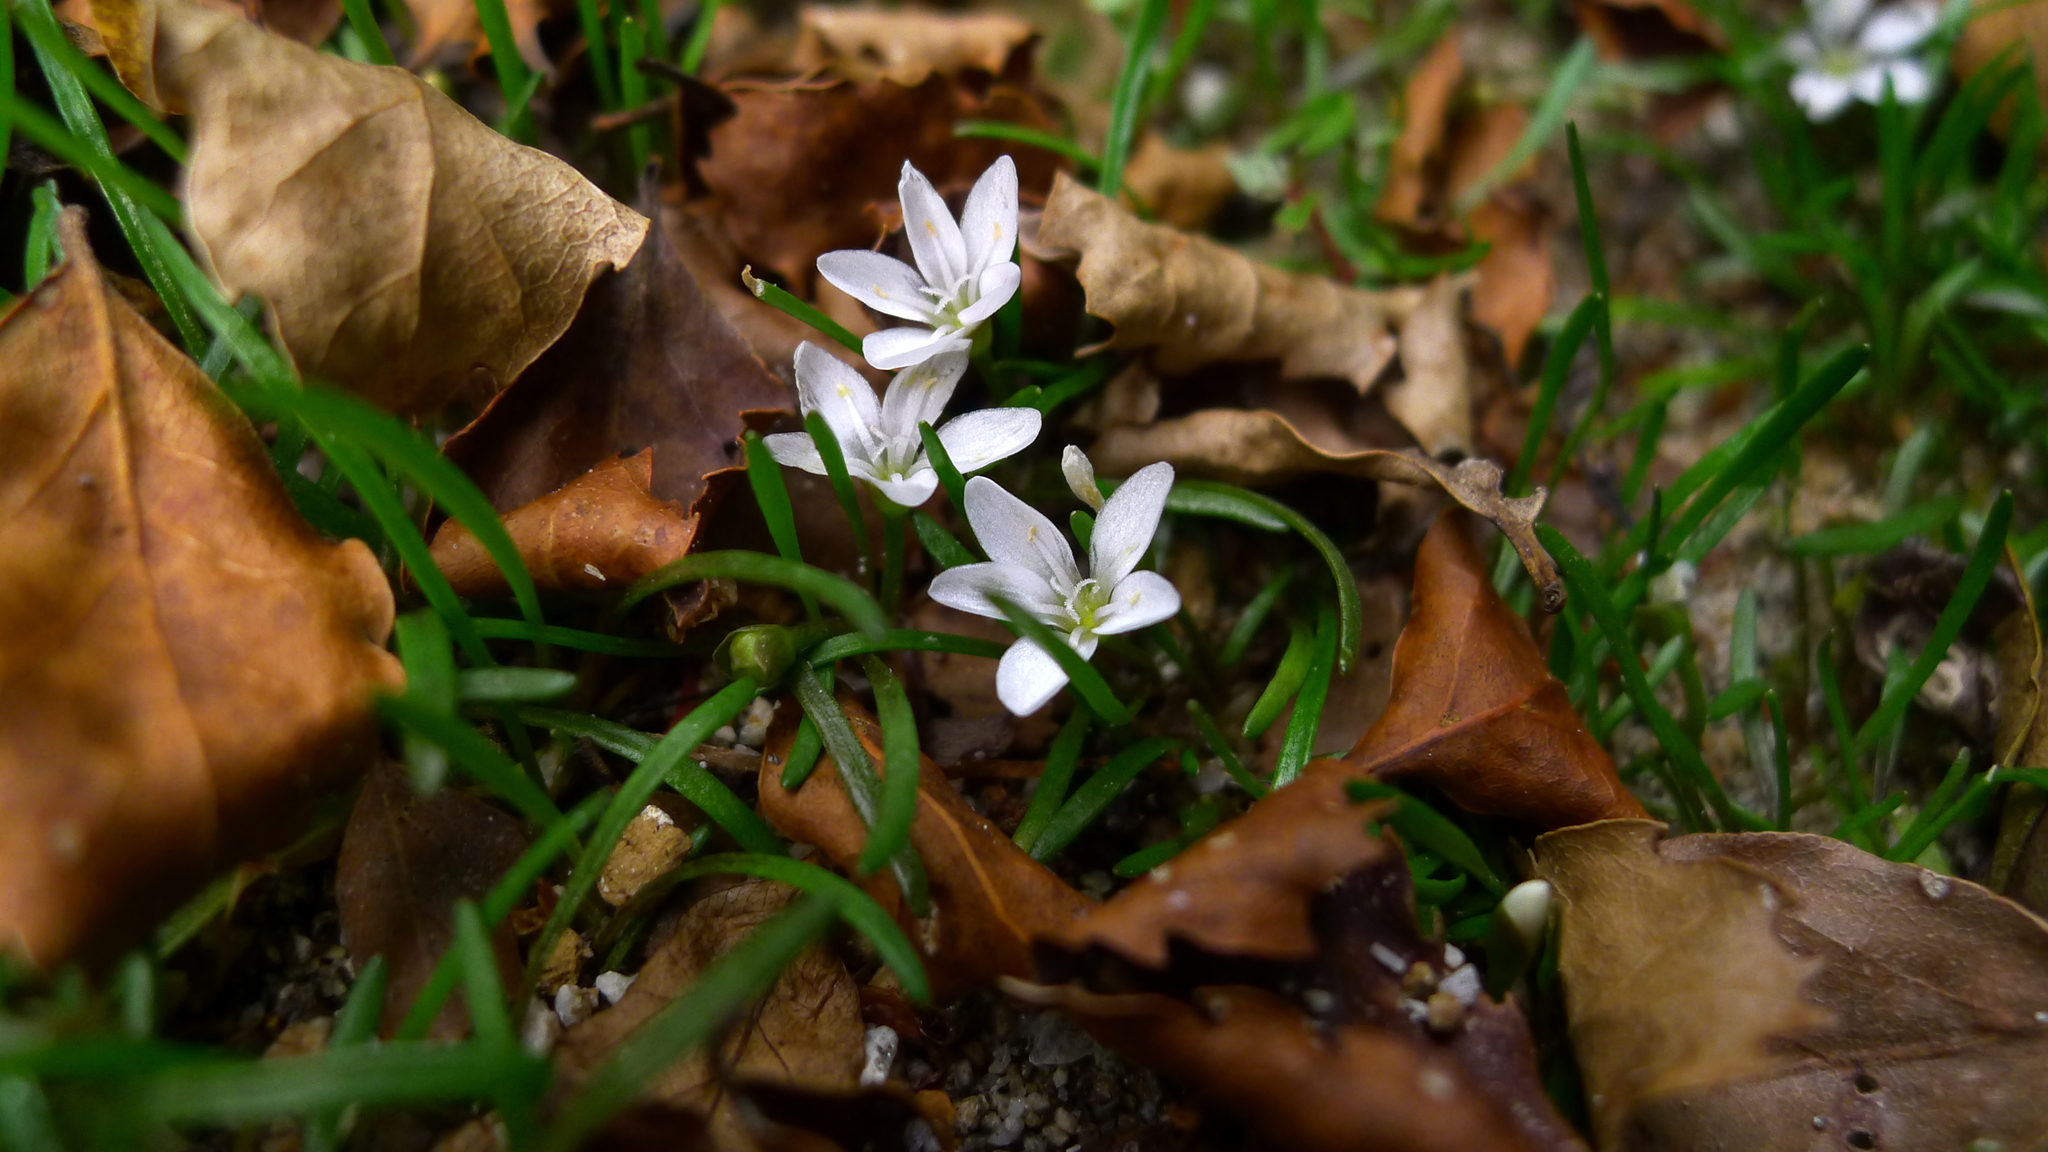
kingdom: Plantae
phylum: Tracheophyta
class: Magnoliopsida
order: Caryophyllales
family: Montiaceae
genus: Montia
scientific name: Montia calycina
